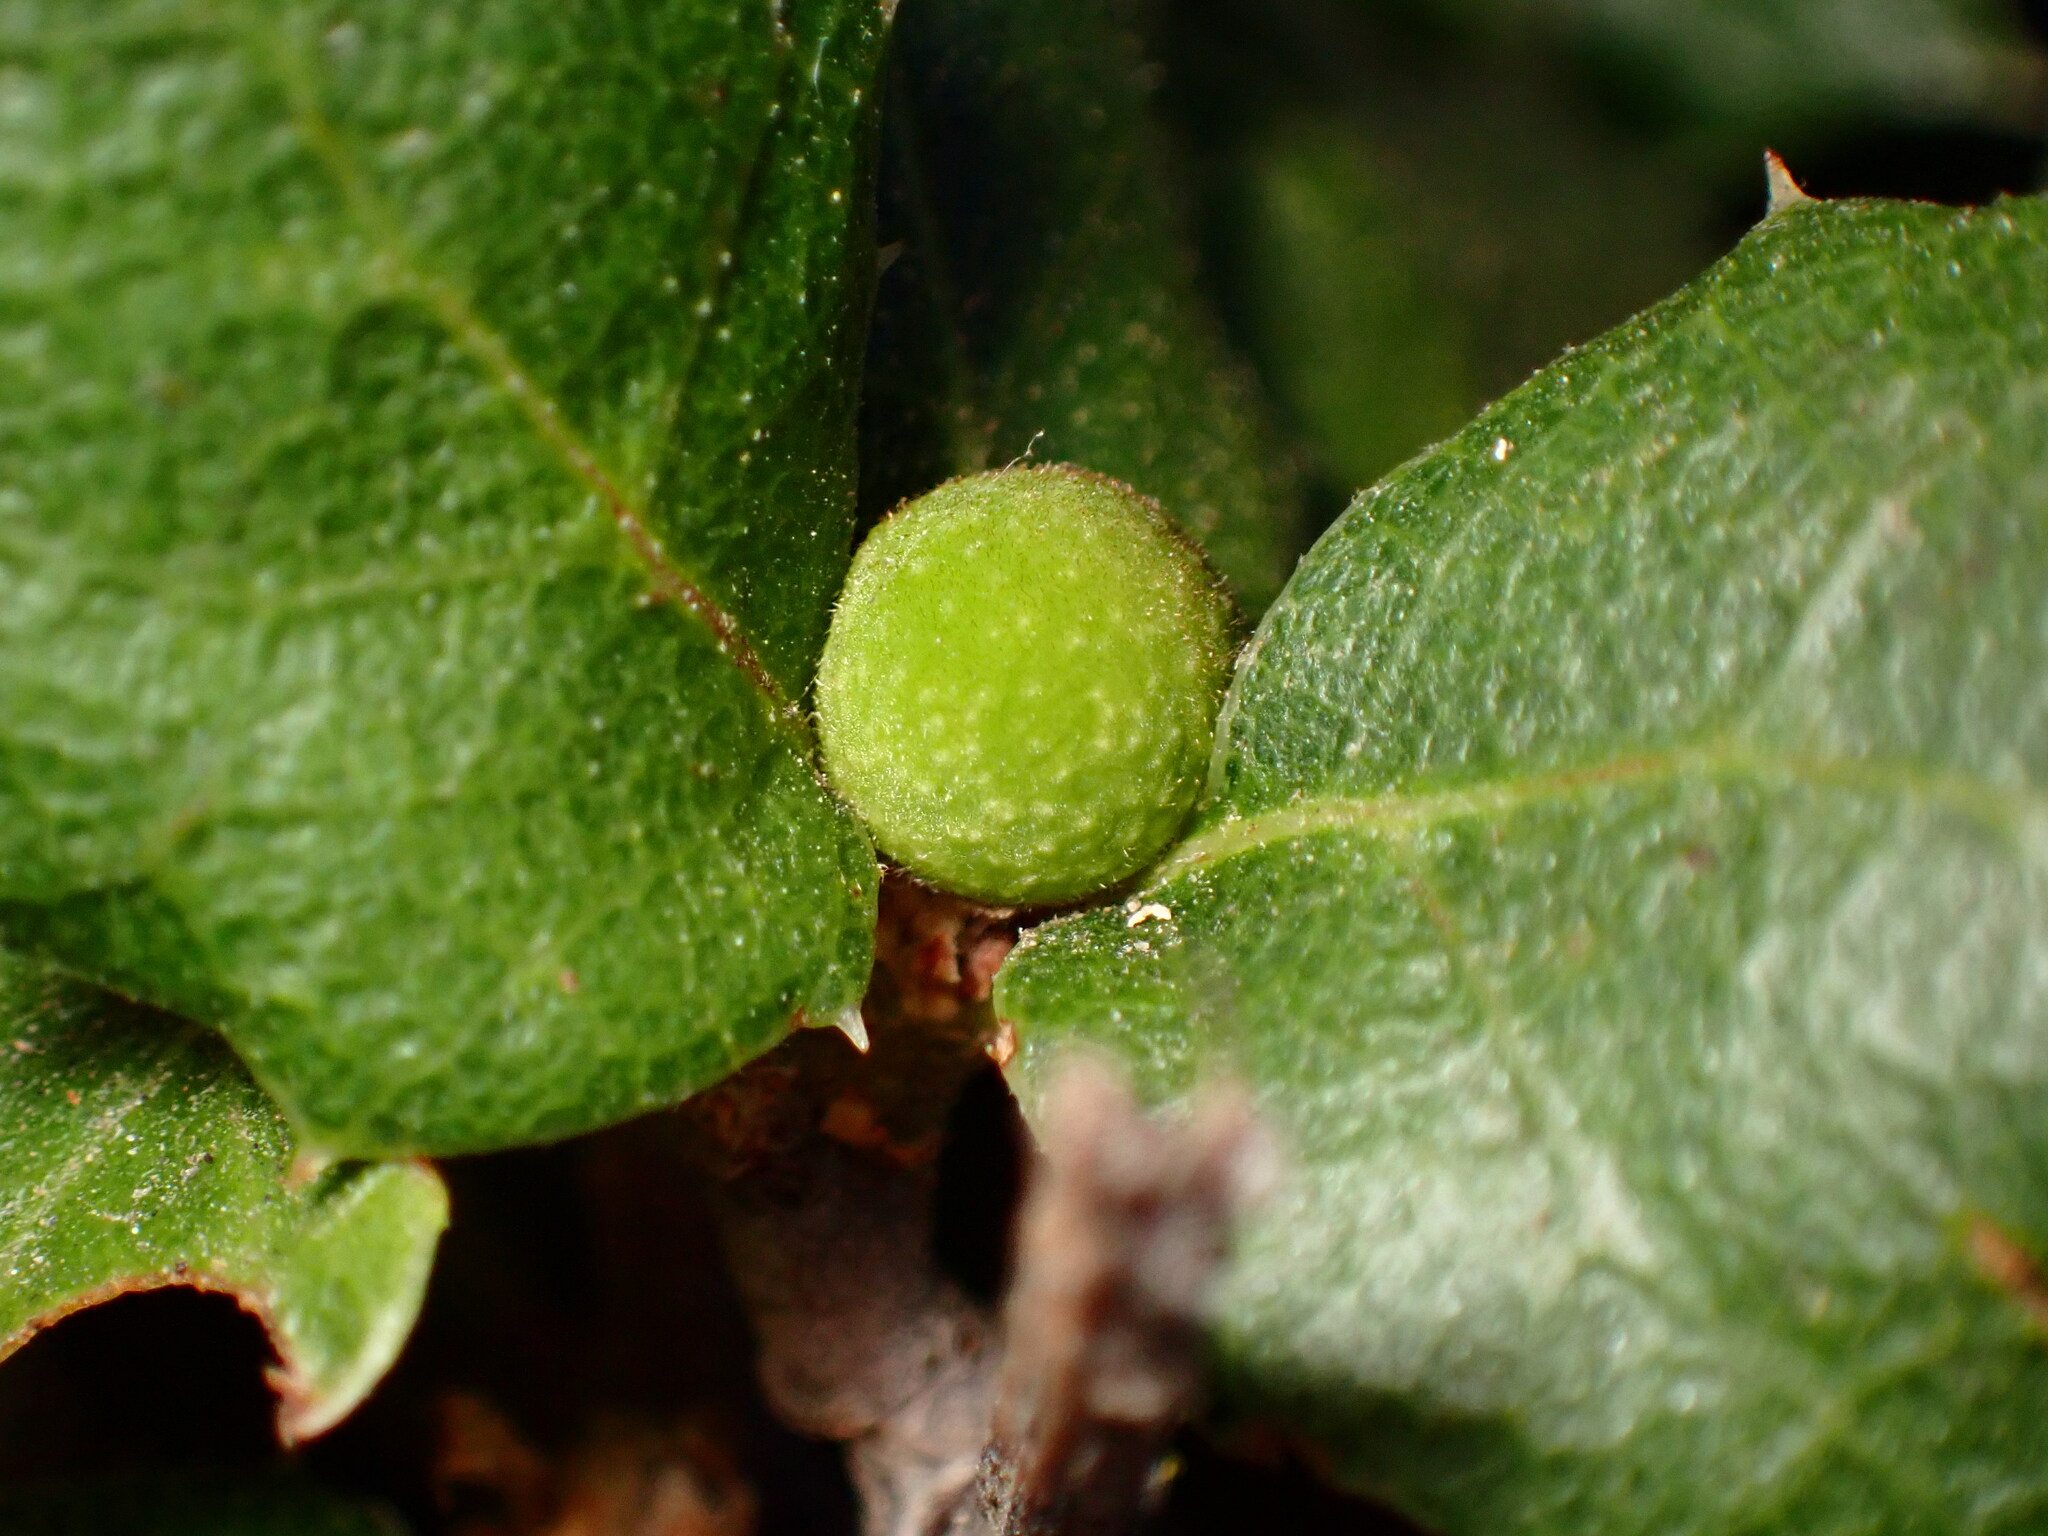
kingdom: Animalia
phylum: Arthropoda
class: Insecta
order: Hymenoptera
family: Cynipidae
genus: Callirhytis
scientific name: Callirhytis
